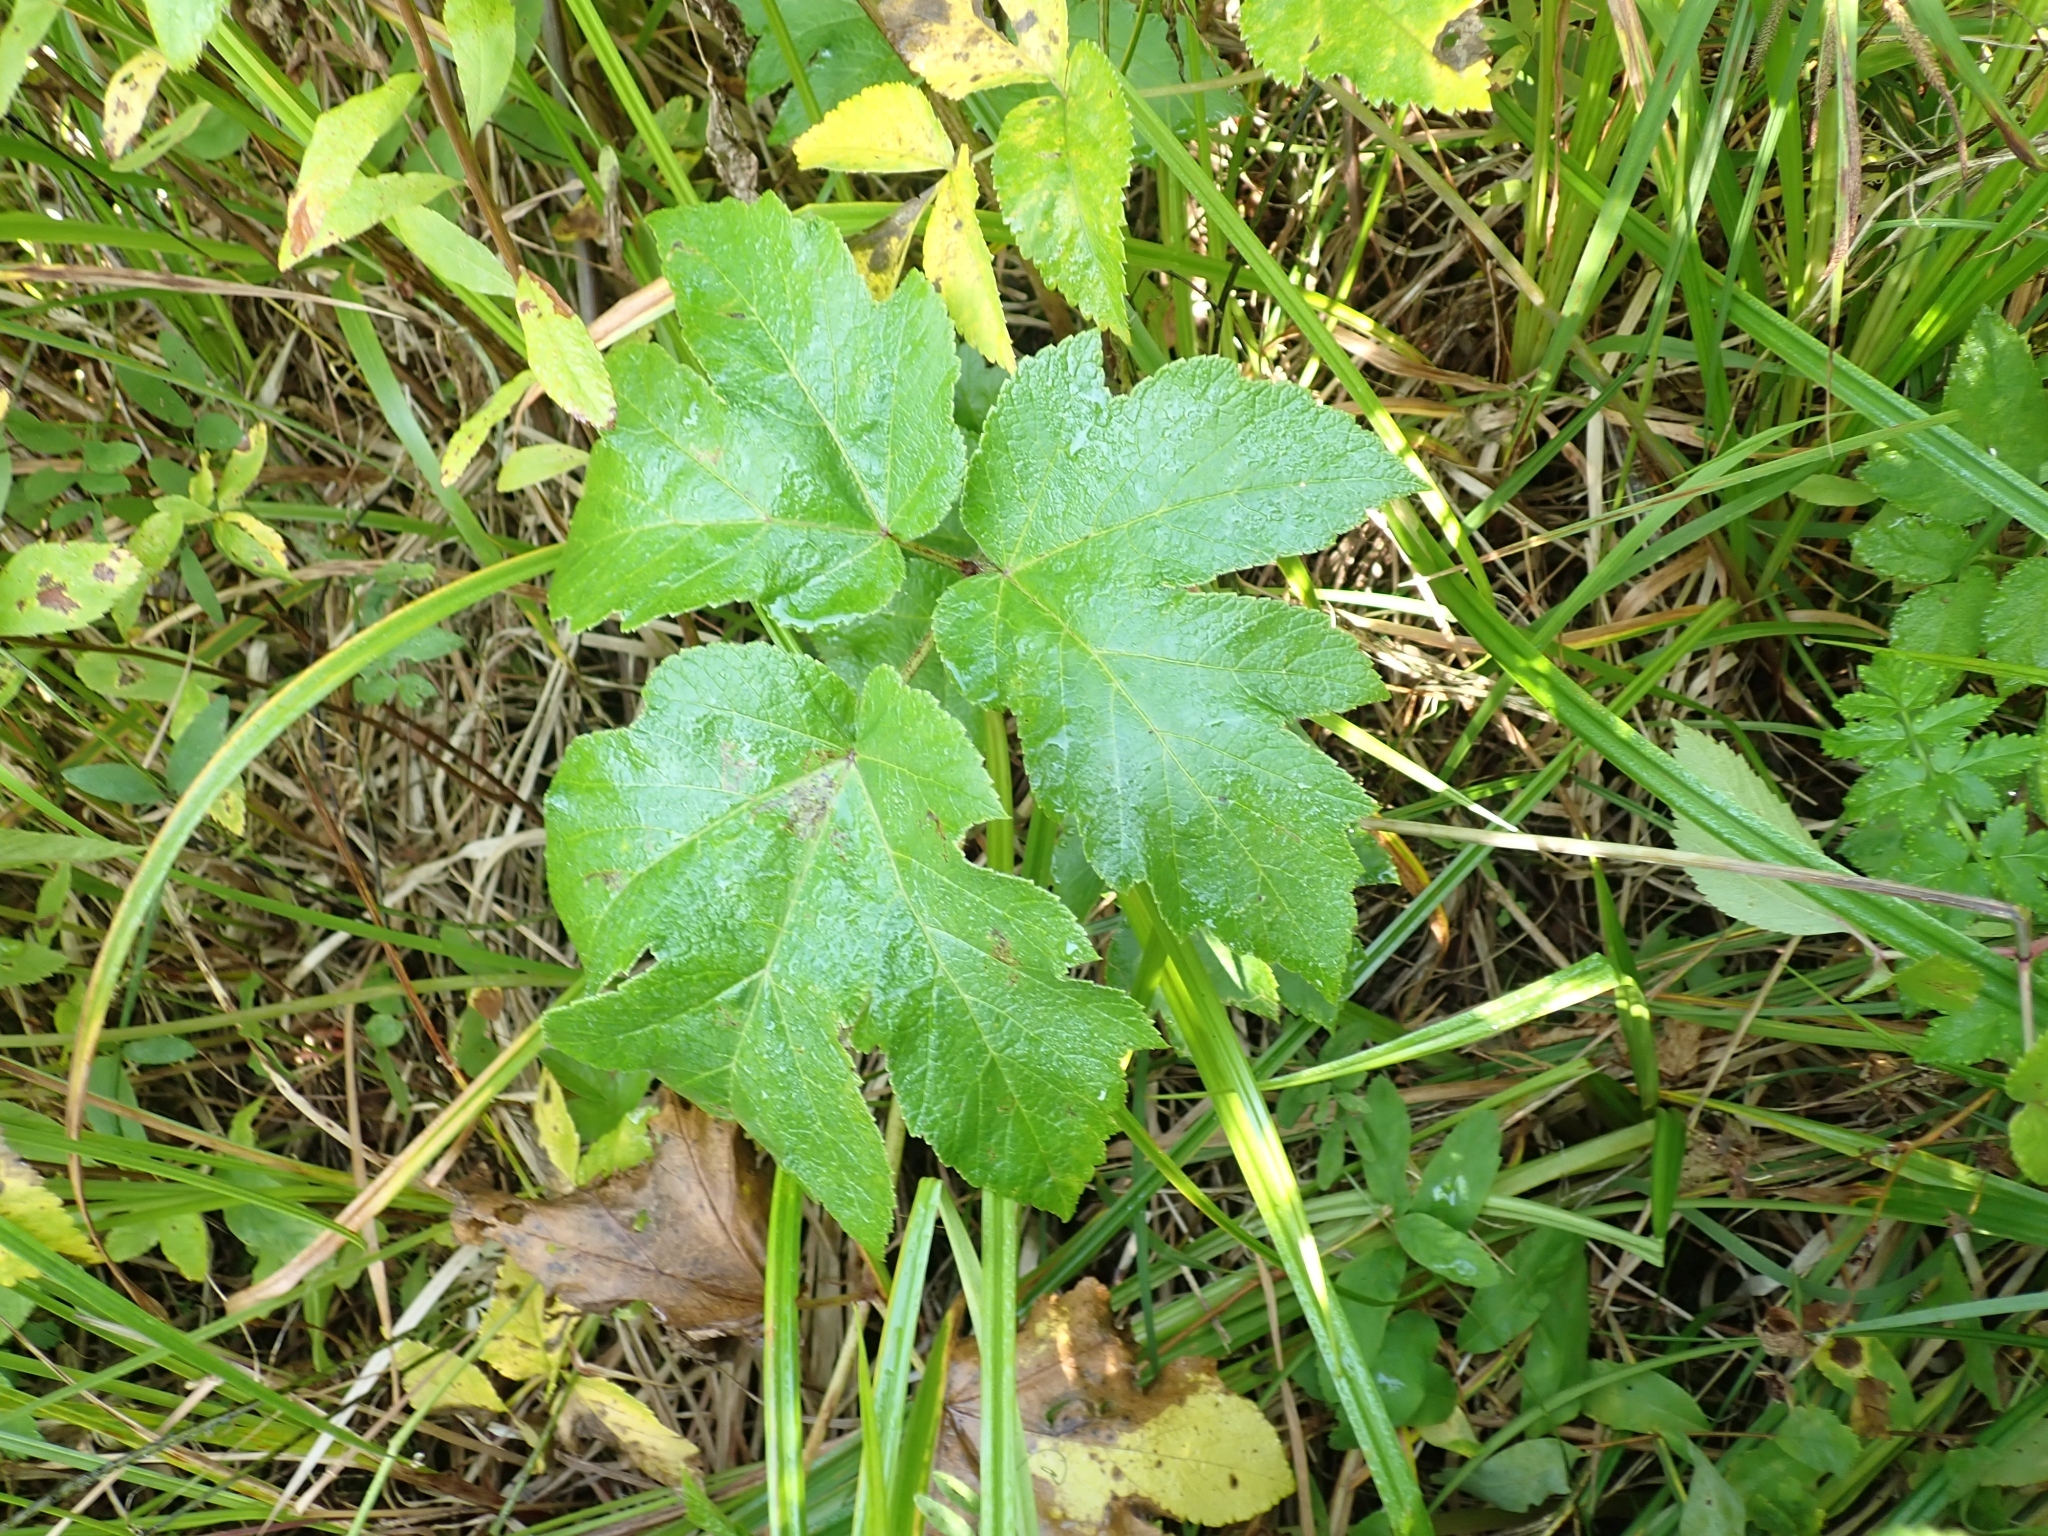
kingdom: Plantae
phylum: Tracheophyta
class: Magnoliopsida
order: Apiales
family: Apiaceae
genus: Heracleum
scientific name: Heracleum maximum
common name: American cow parsnip
